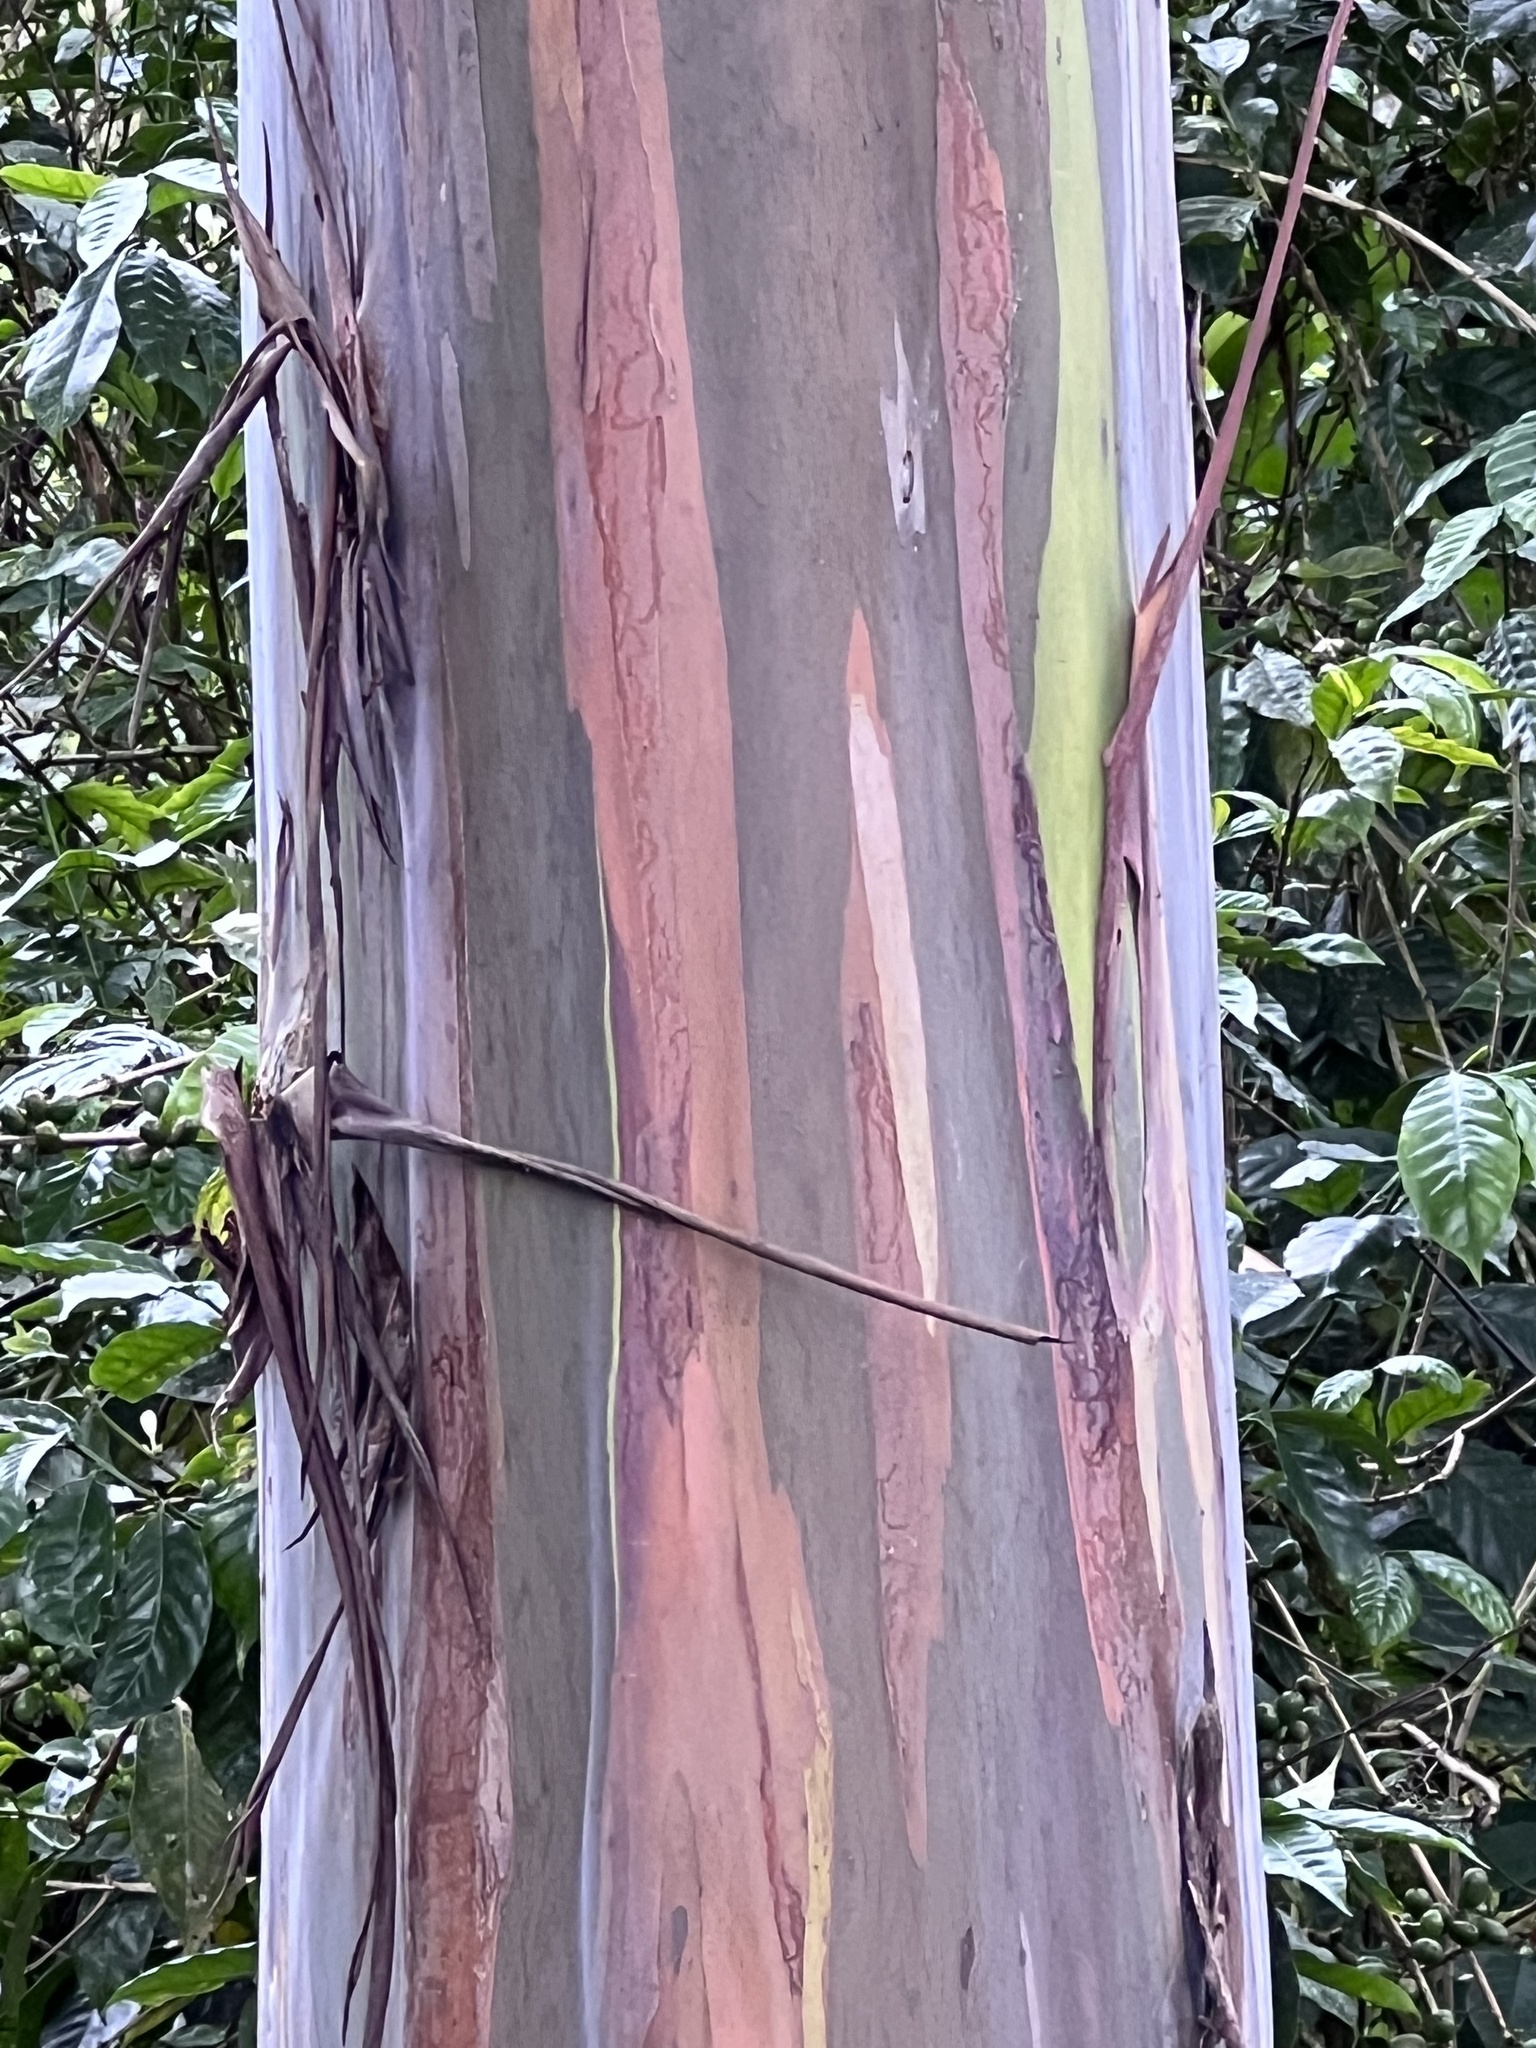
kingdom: Plantae
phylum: Tracheophyta
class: Magnoliopsida
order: Myrtales
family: Myrtaceae
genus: Eucalyptus
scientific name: Eucalyptus deglupta
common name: Mindanao gum
